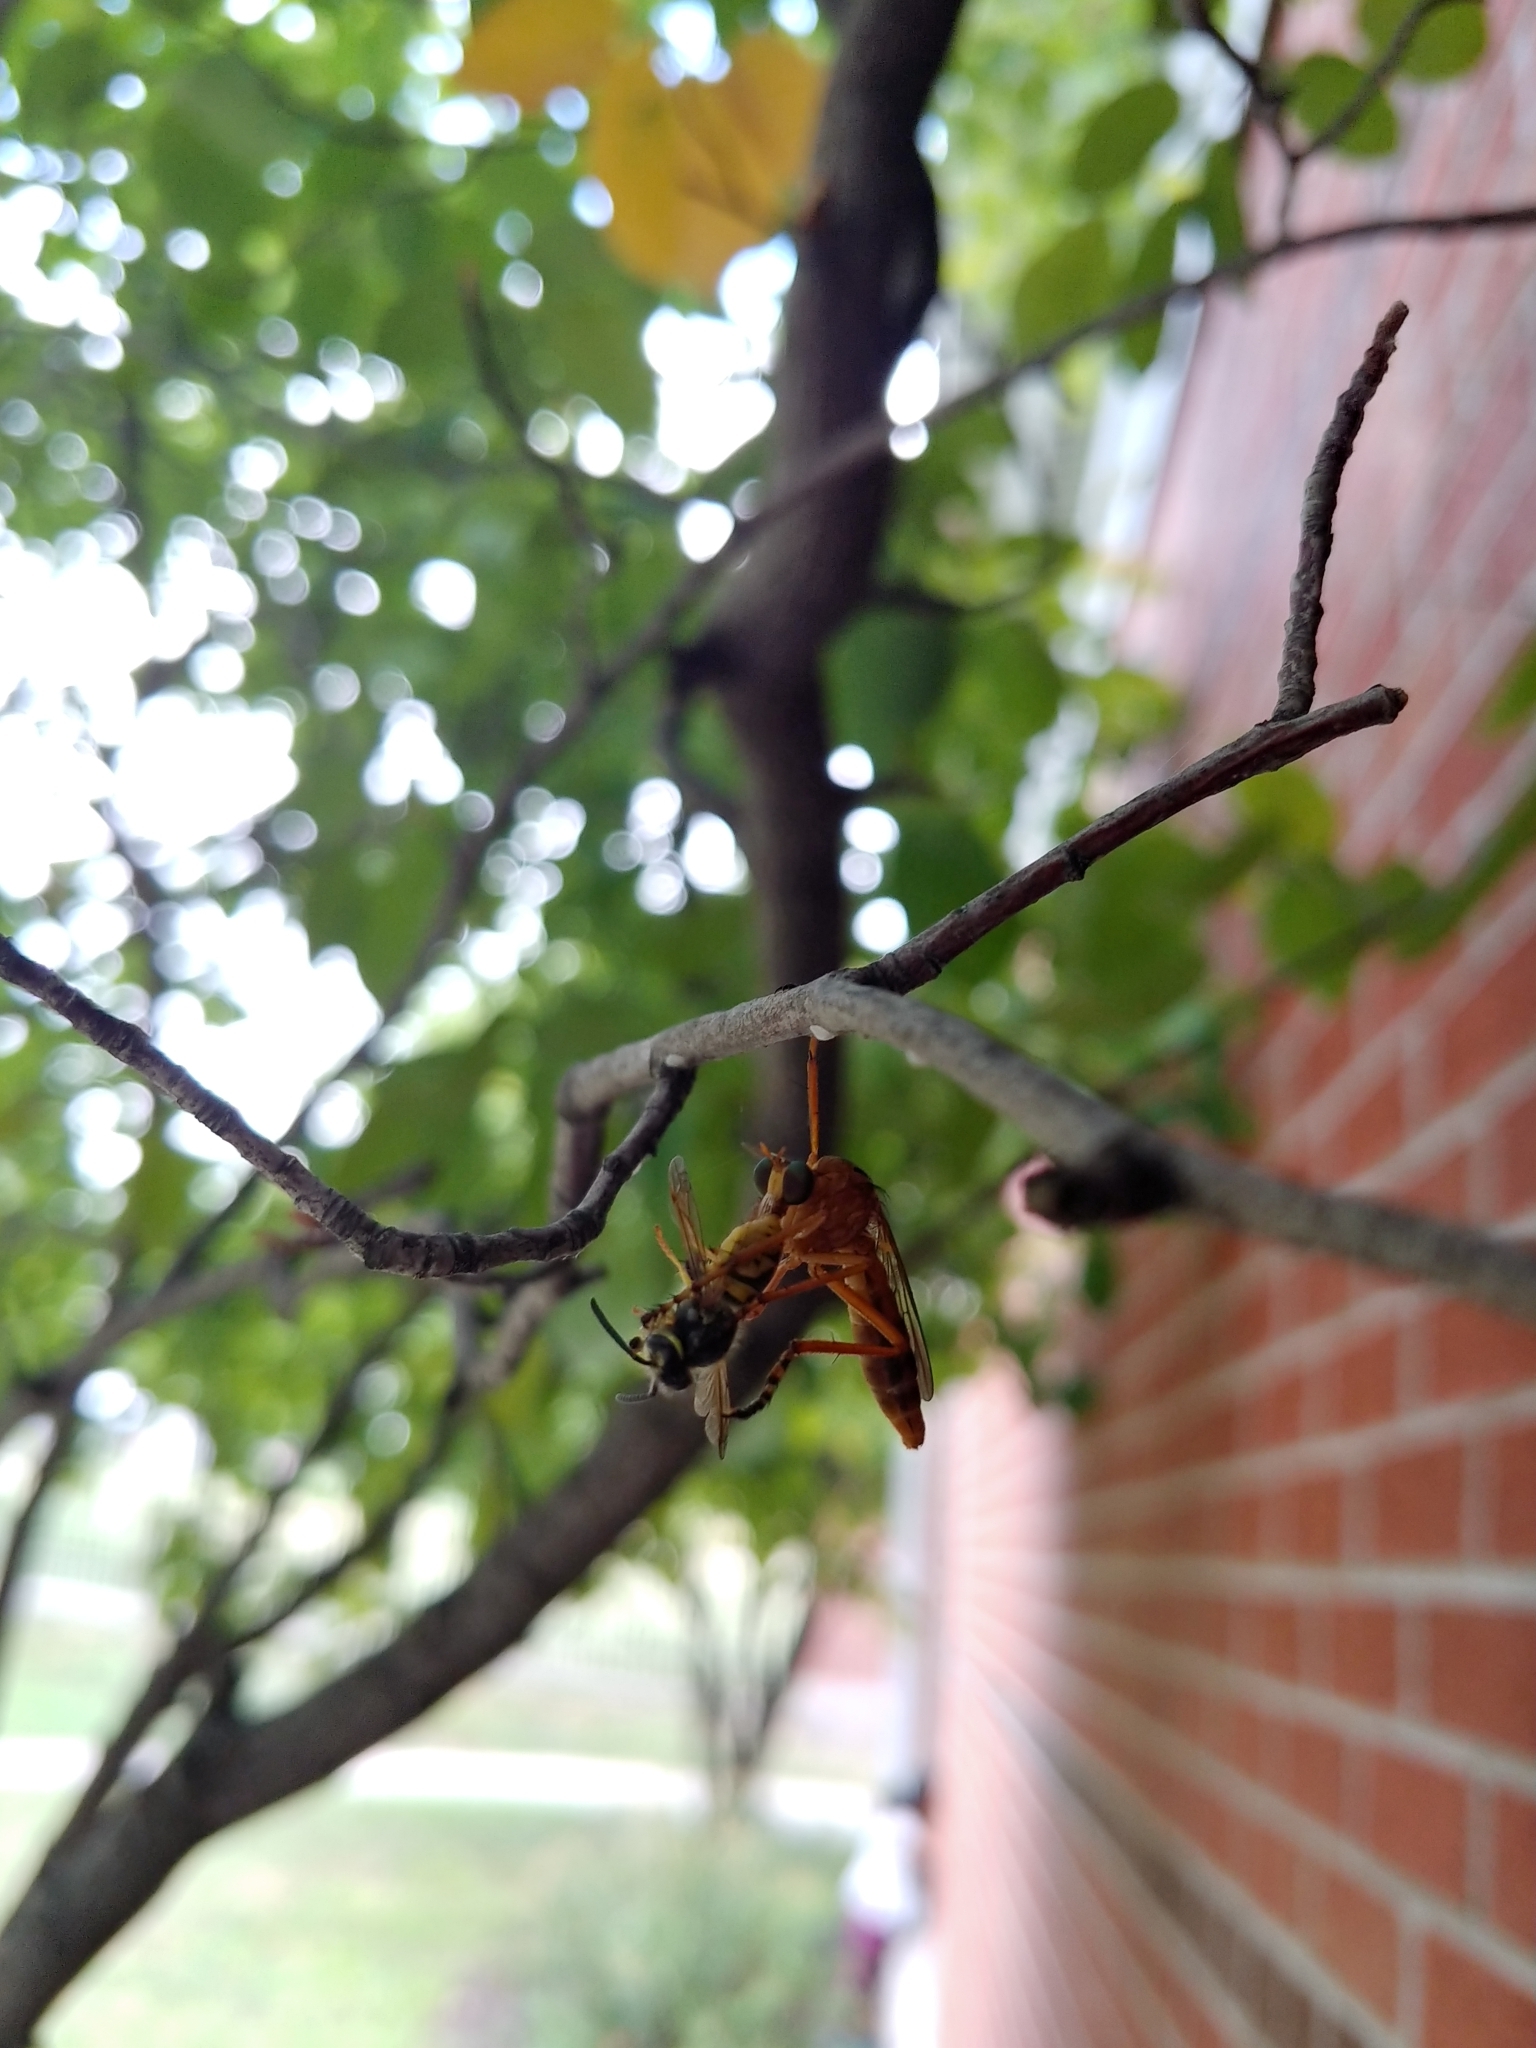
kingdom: Animalia
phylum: Arthropoda
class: Insecta
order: Diptera
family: Asilidae
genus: Diogmites
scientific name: Diogmites
